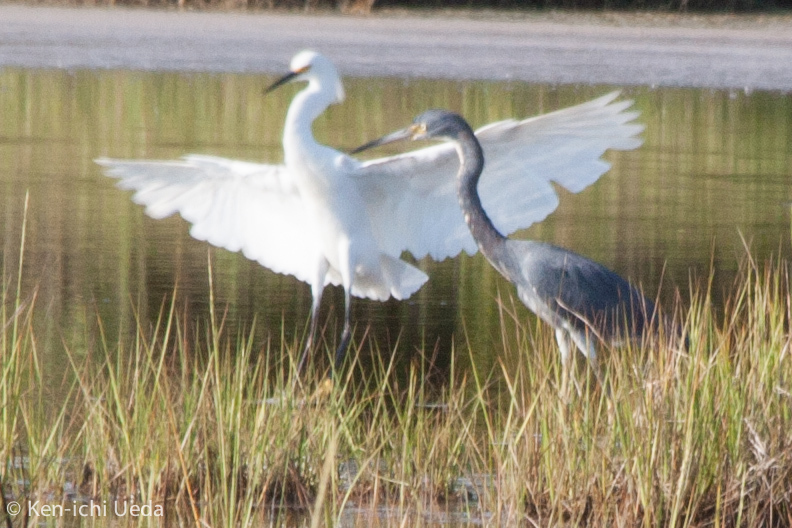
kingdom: Animalia
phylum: Chordata
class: Aves
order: Pelecaniformes
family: Ardeidae
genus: Egretta
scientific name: Egretta tricolor
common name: Tricolored heron
